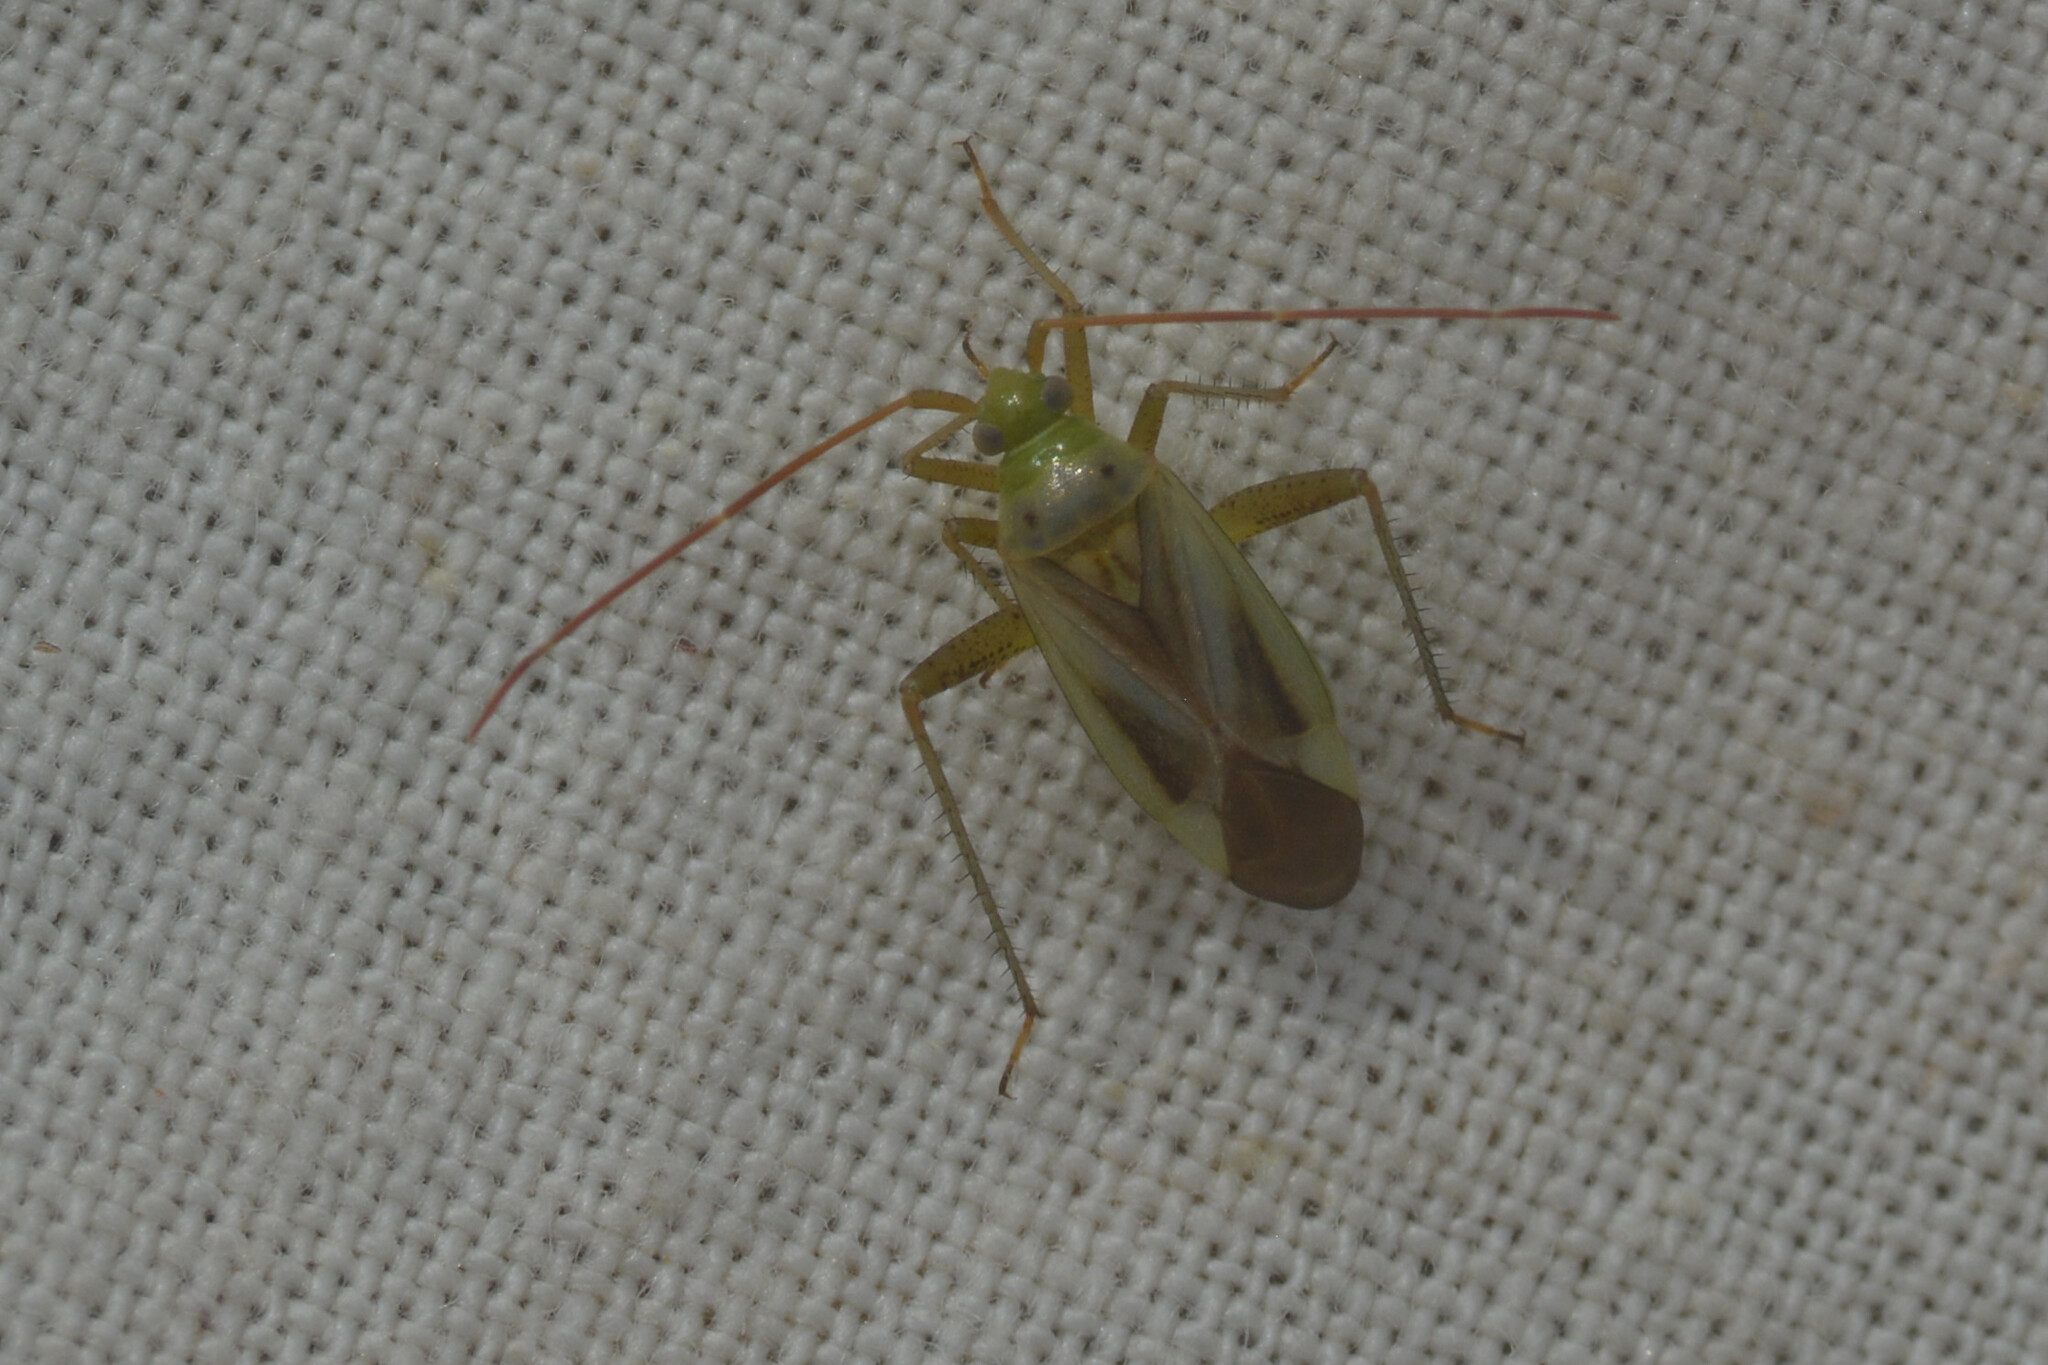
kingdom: Animalia
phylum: Arthropoda
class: Insecta
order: Hemiptera
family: Miridae
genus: Adelphocoris
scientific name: Adelphocoris lineolatus
